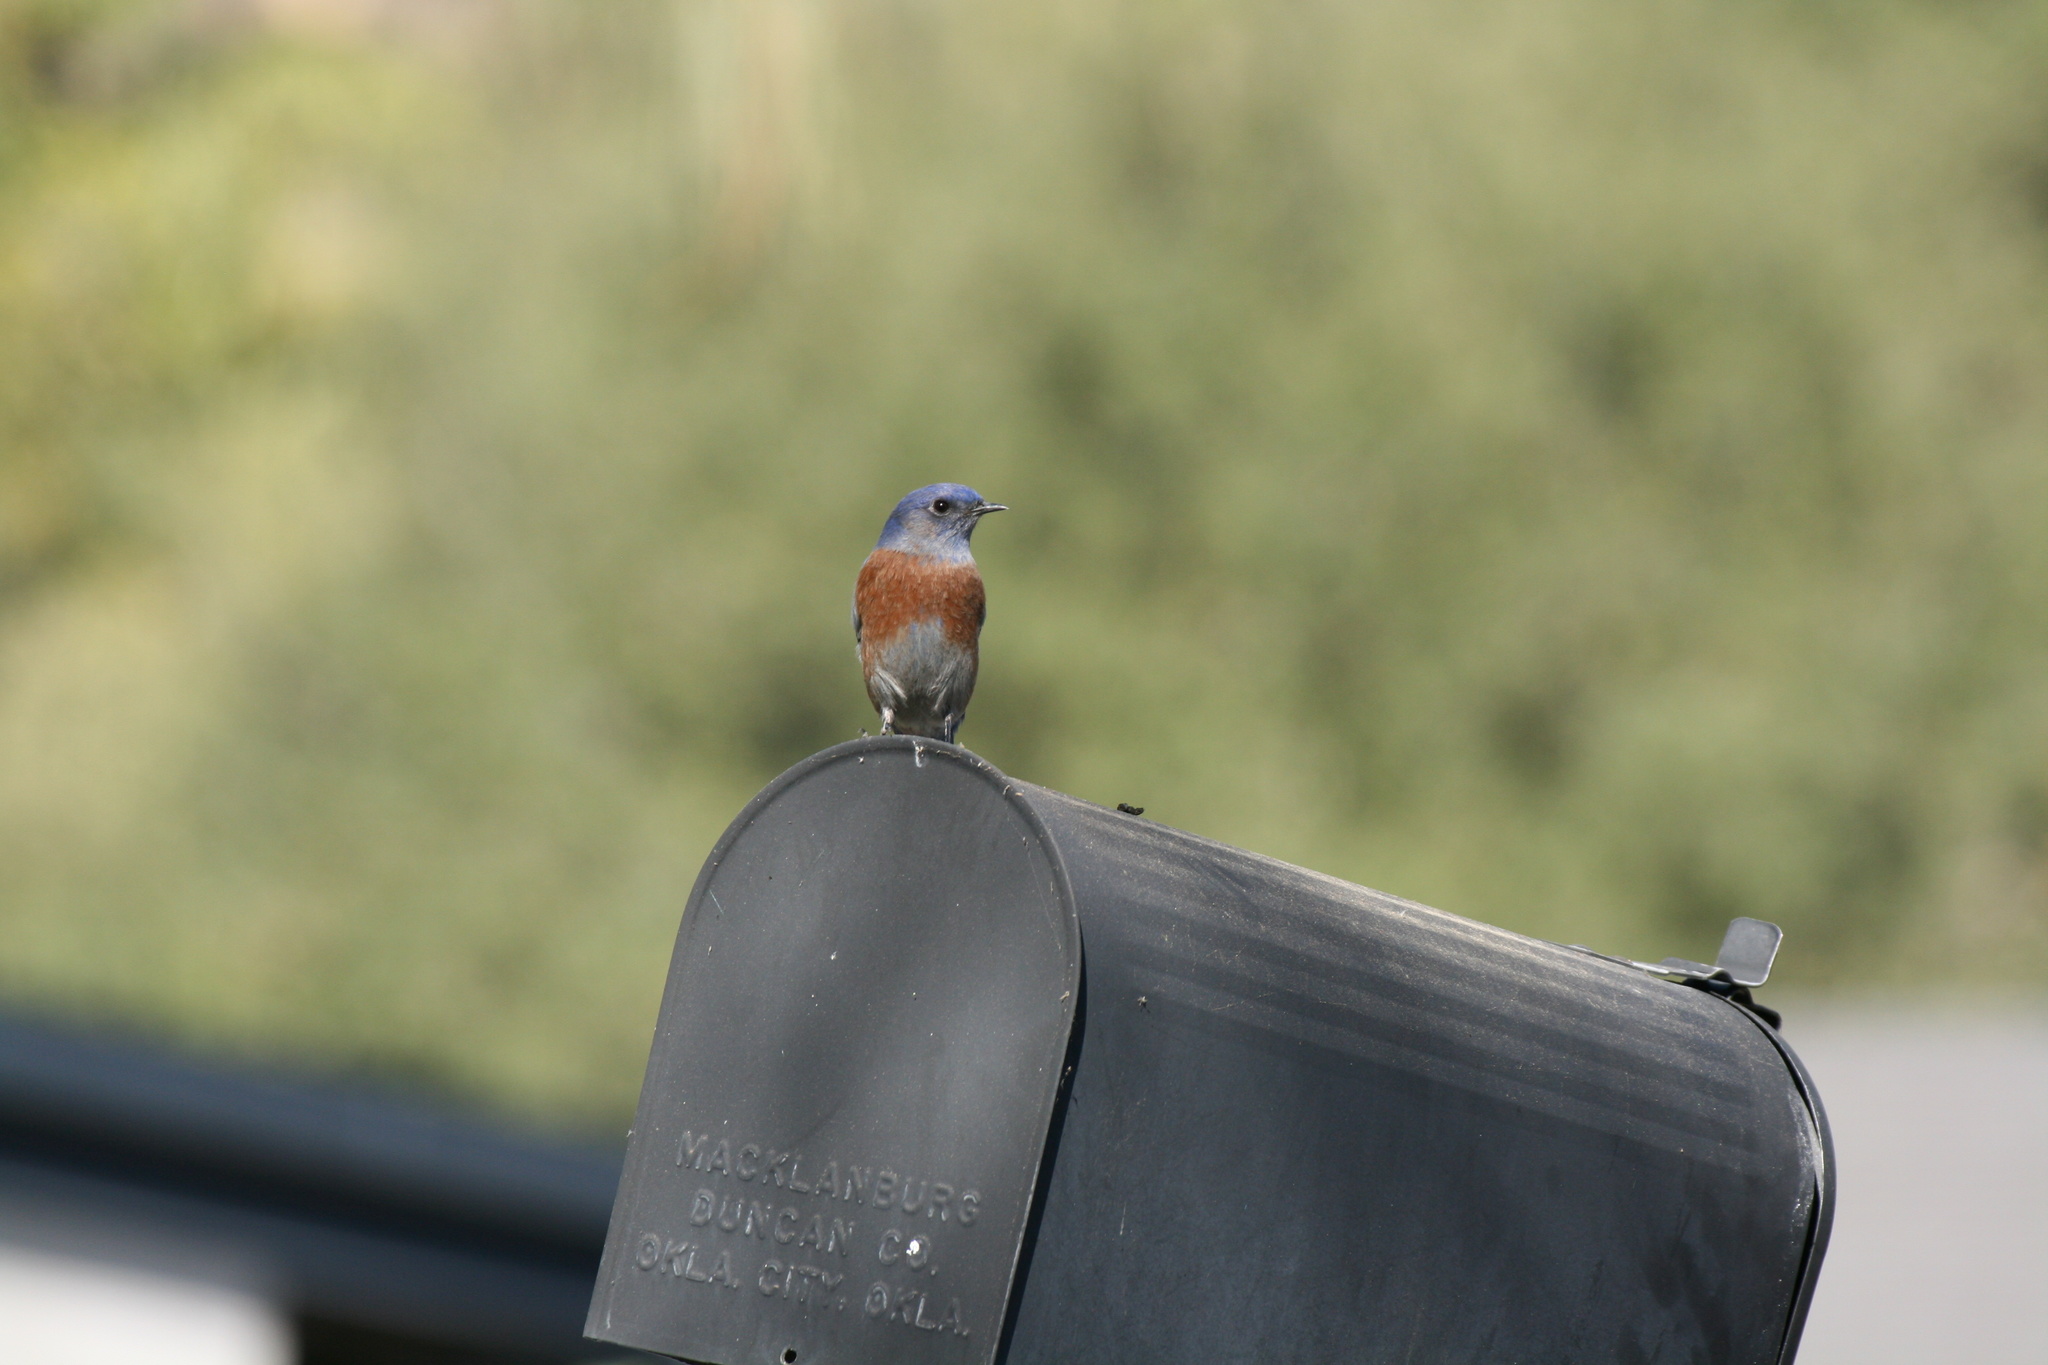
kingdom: Animalia
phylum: Chordata
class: Aves
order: Passeriformes
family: Turdidae
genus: Sialia
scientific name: Sialia mexicana
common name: Western bluebird
